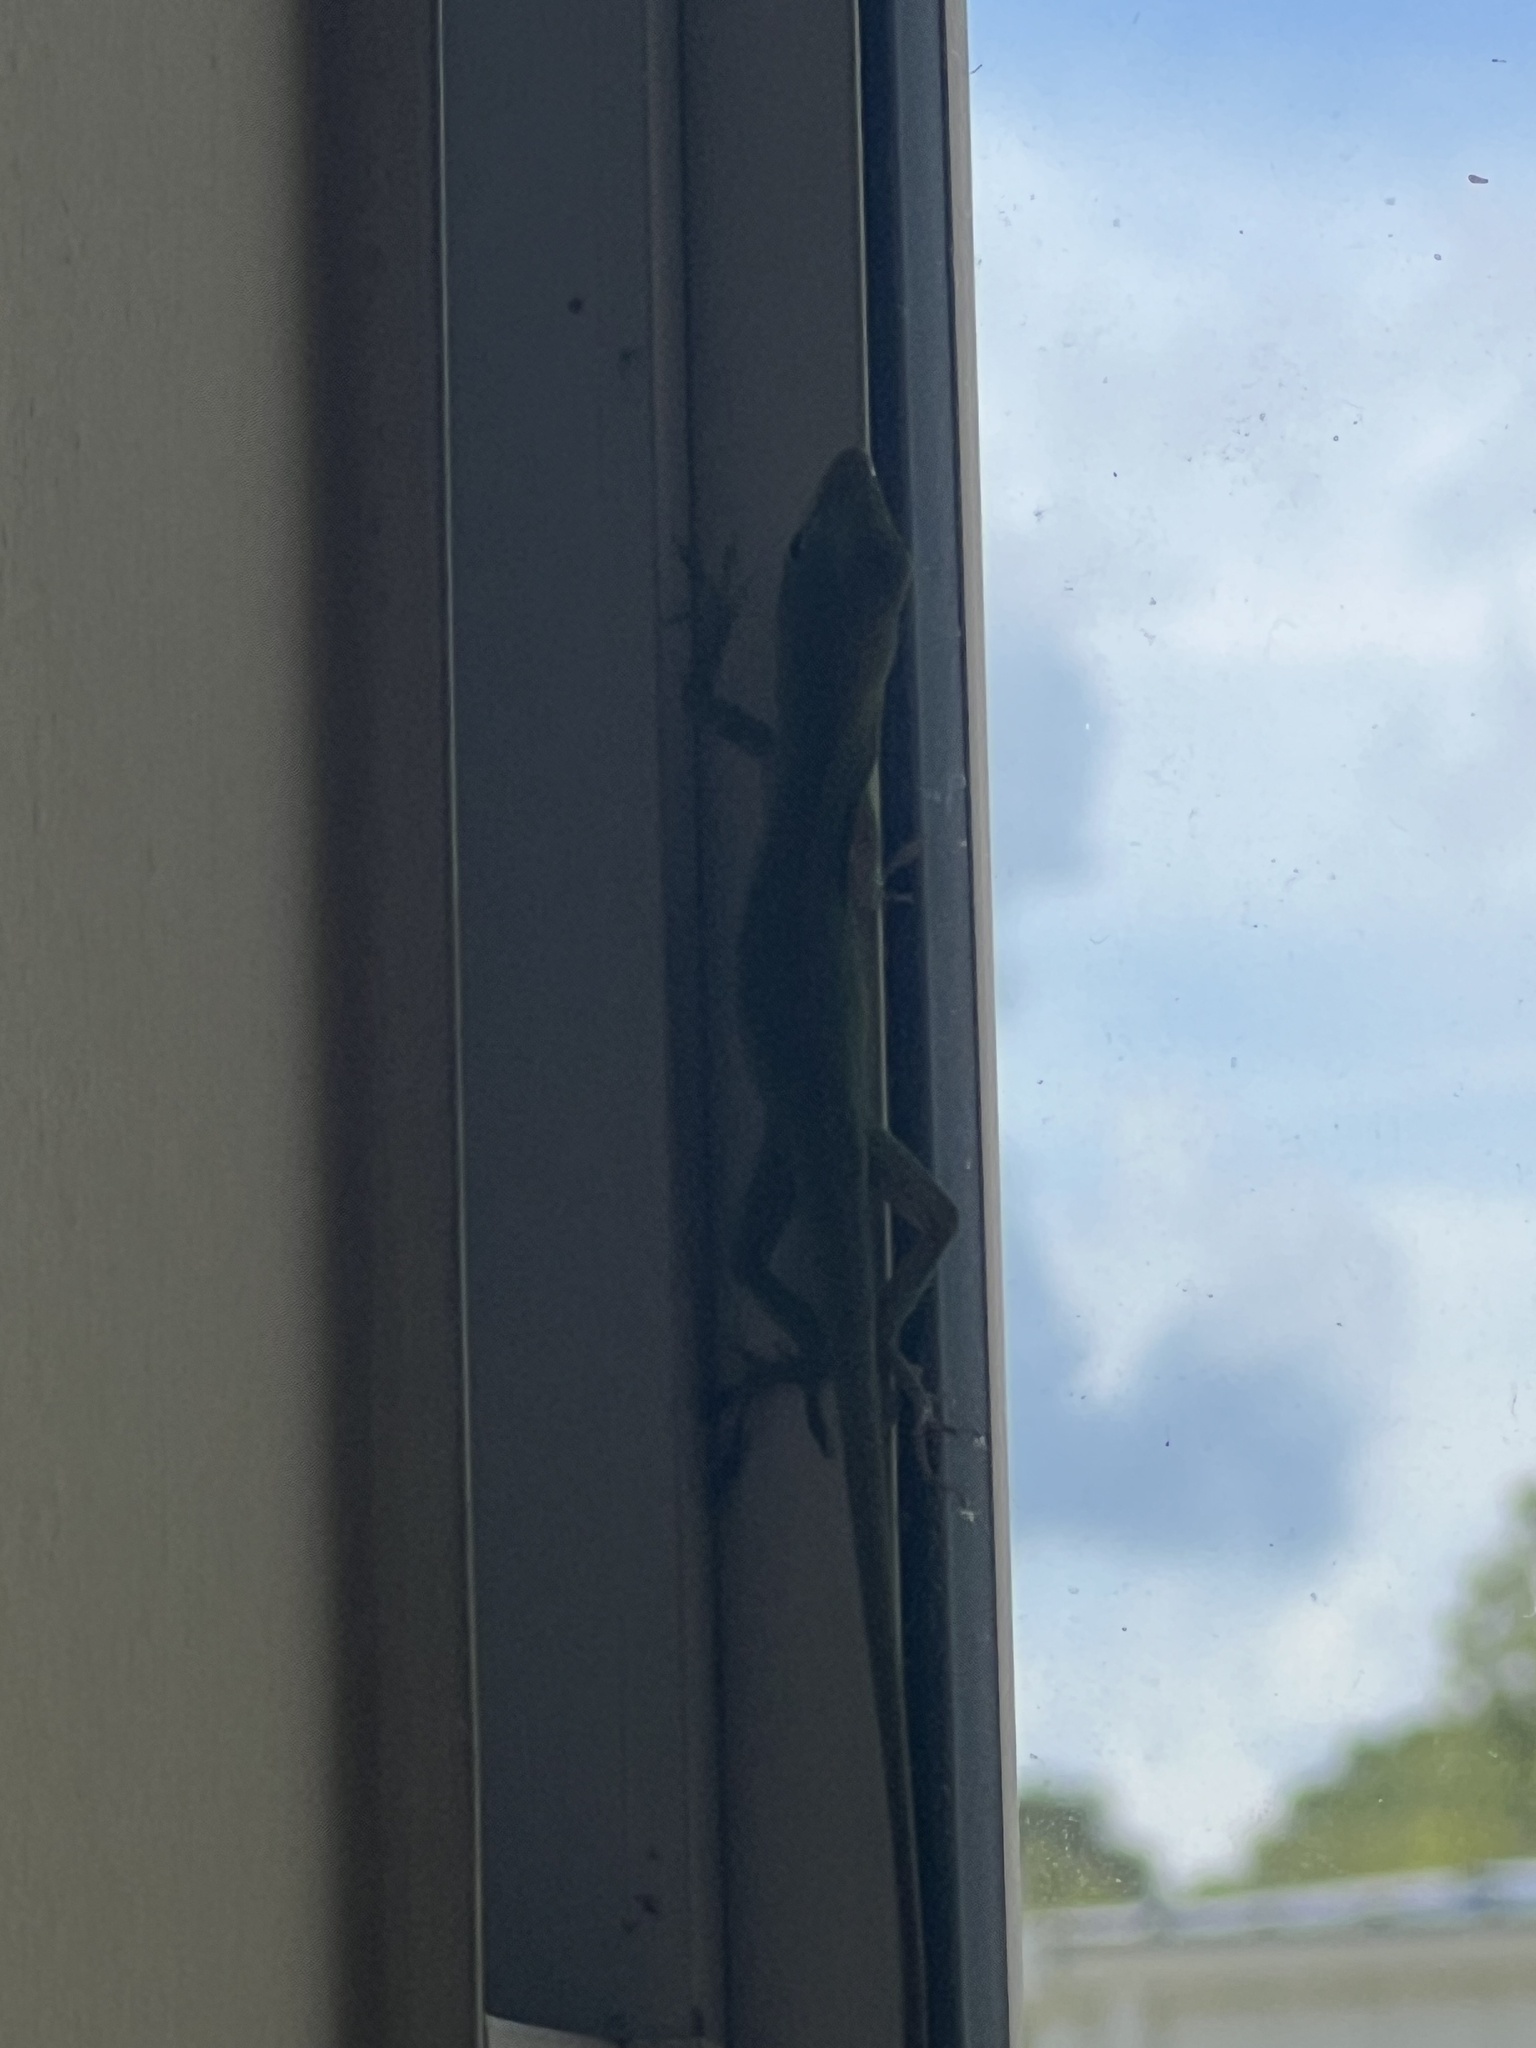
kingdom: Animalia
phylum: Chordata
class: Squamata
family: Dactyloidae
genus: Anolis
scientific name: Anolis carolinensis
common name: Green anole
